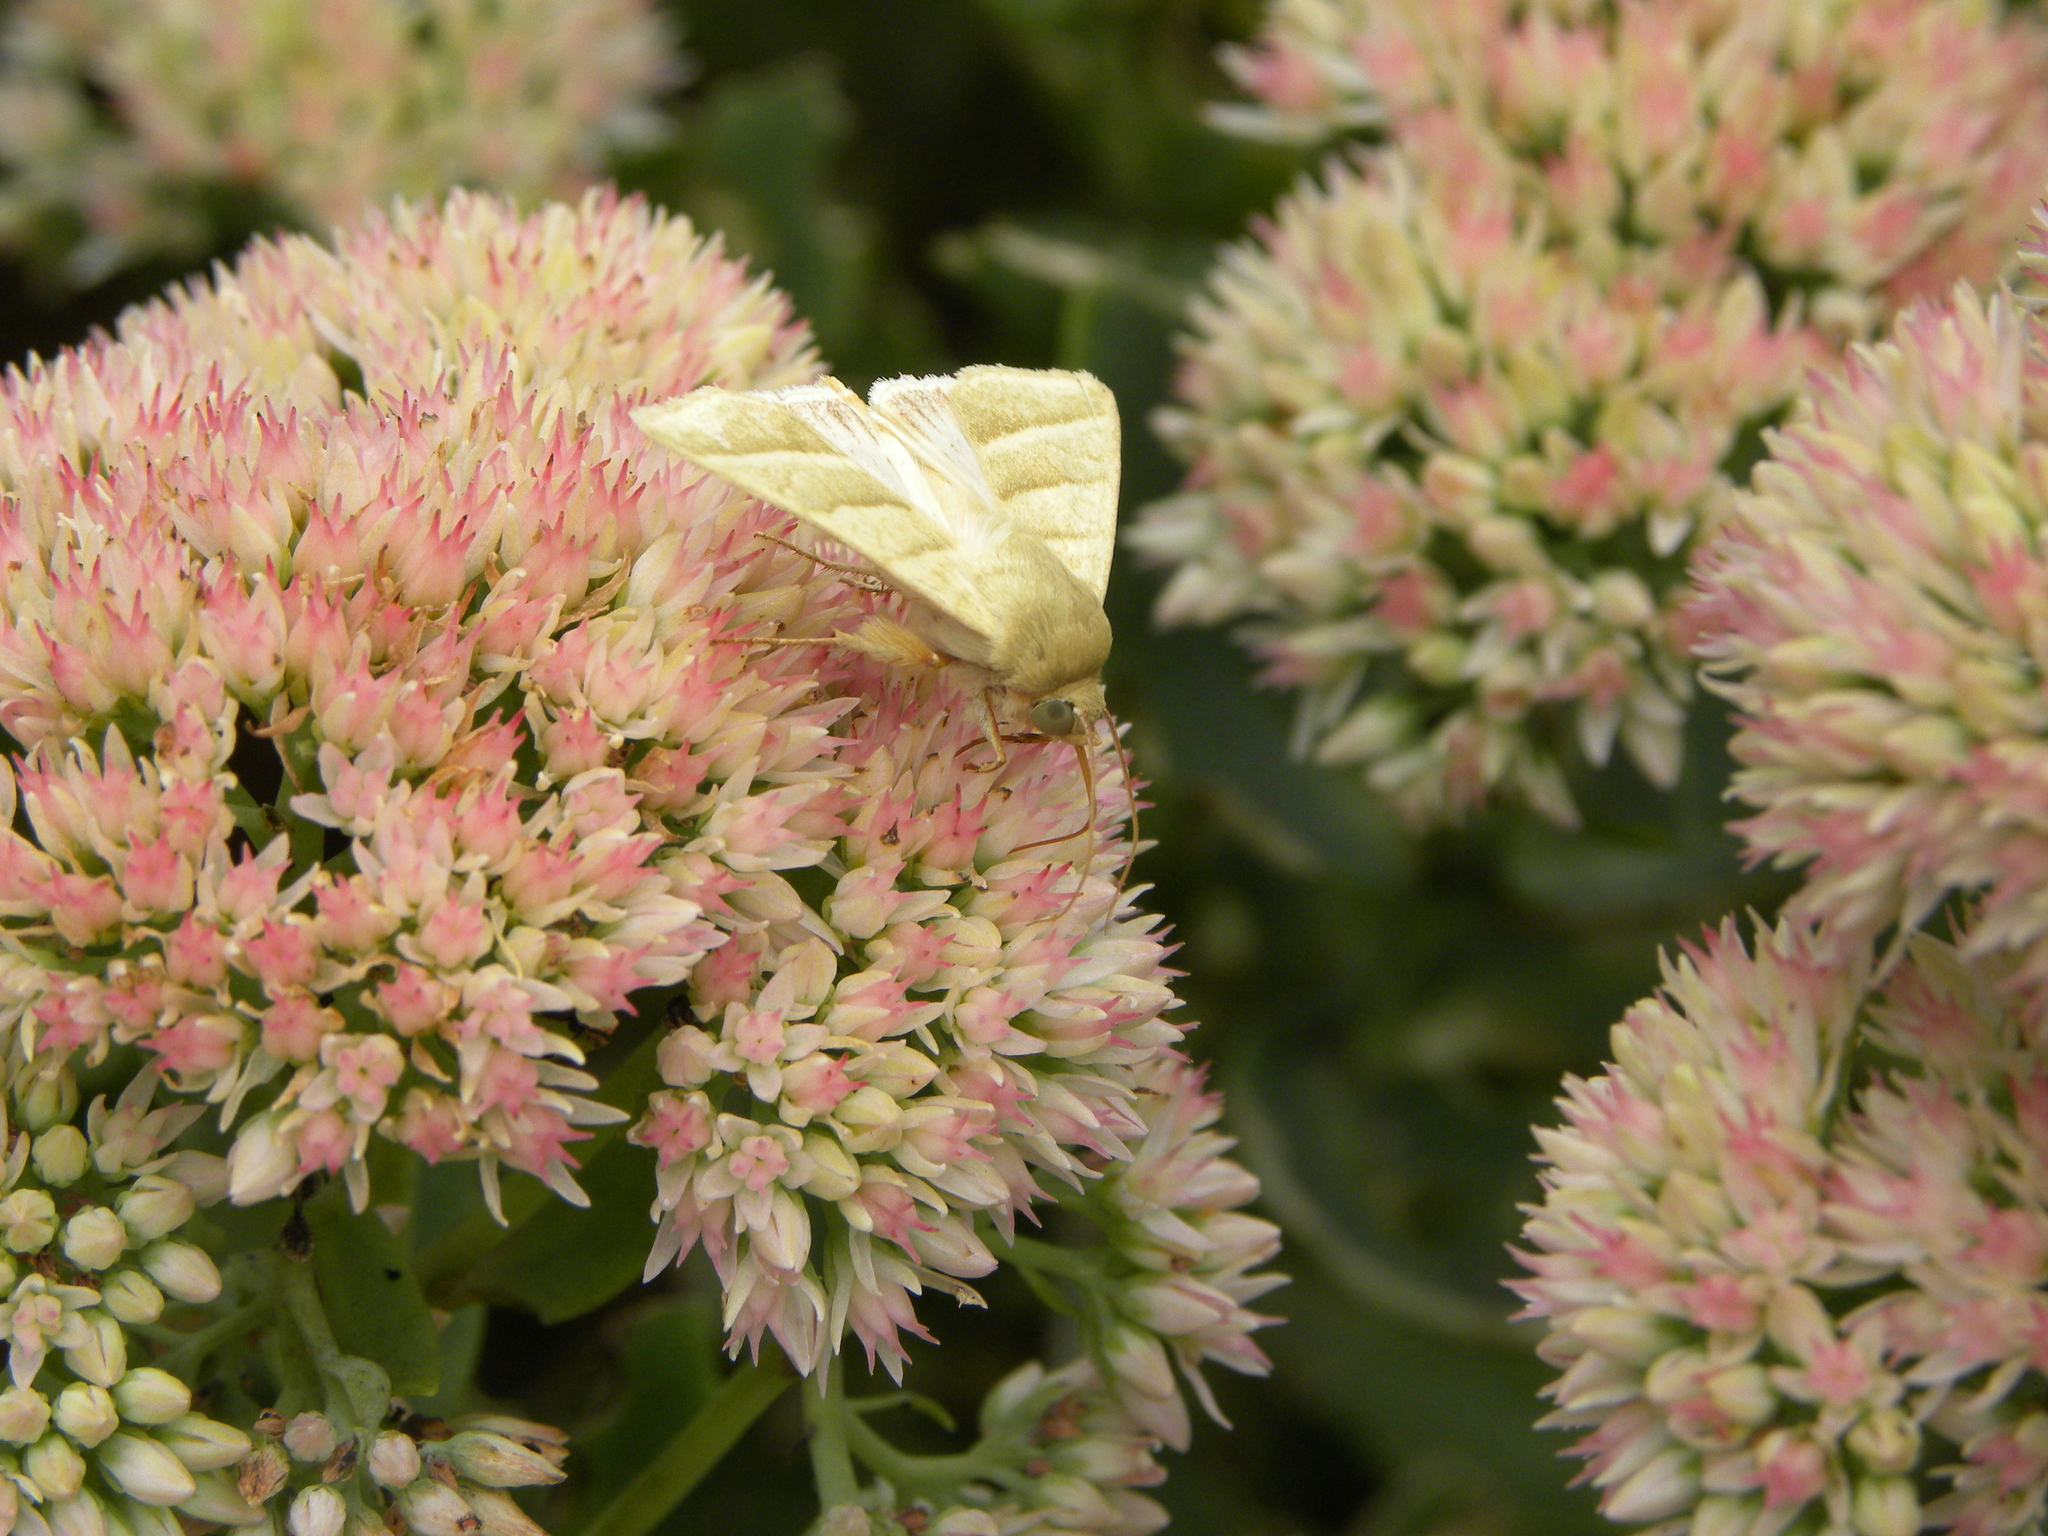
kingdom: Animalia
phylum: Arthropoda
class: Insecta
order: Lepidoptera
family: Noctuidae
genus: Chloridea
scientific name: Chloridea virescens
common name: Tobacco budworm
